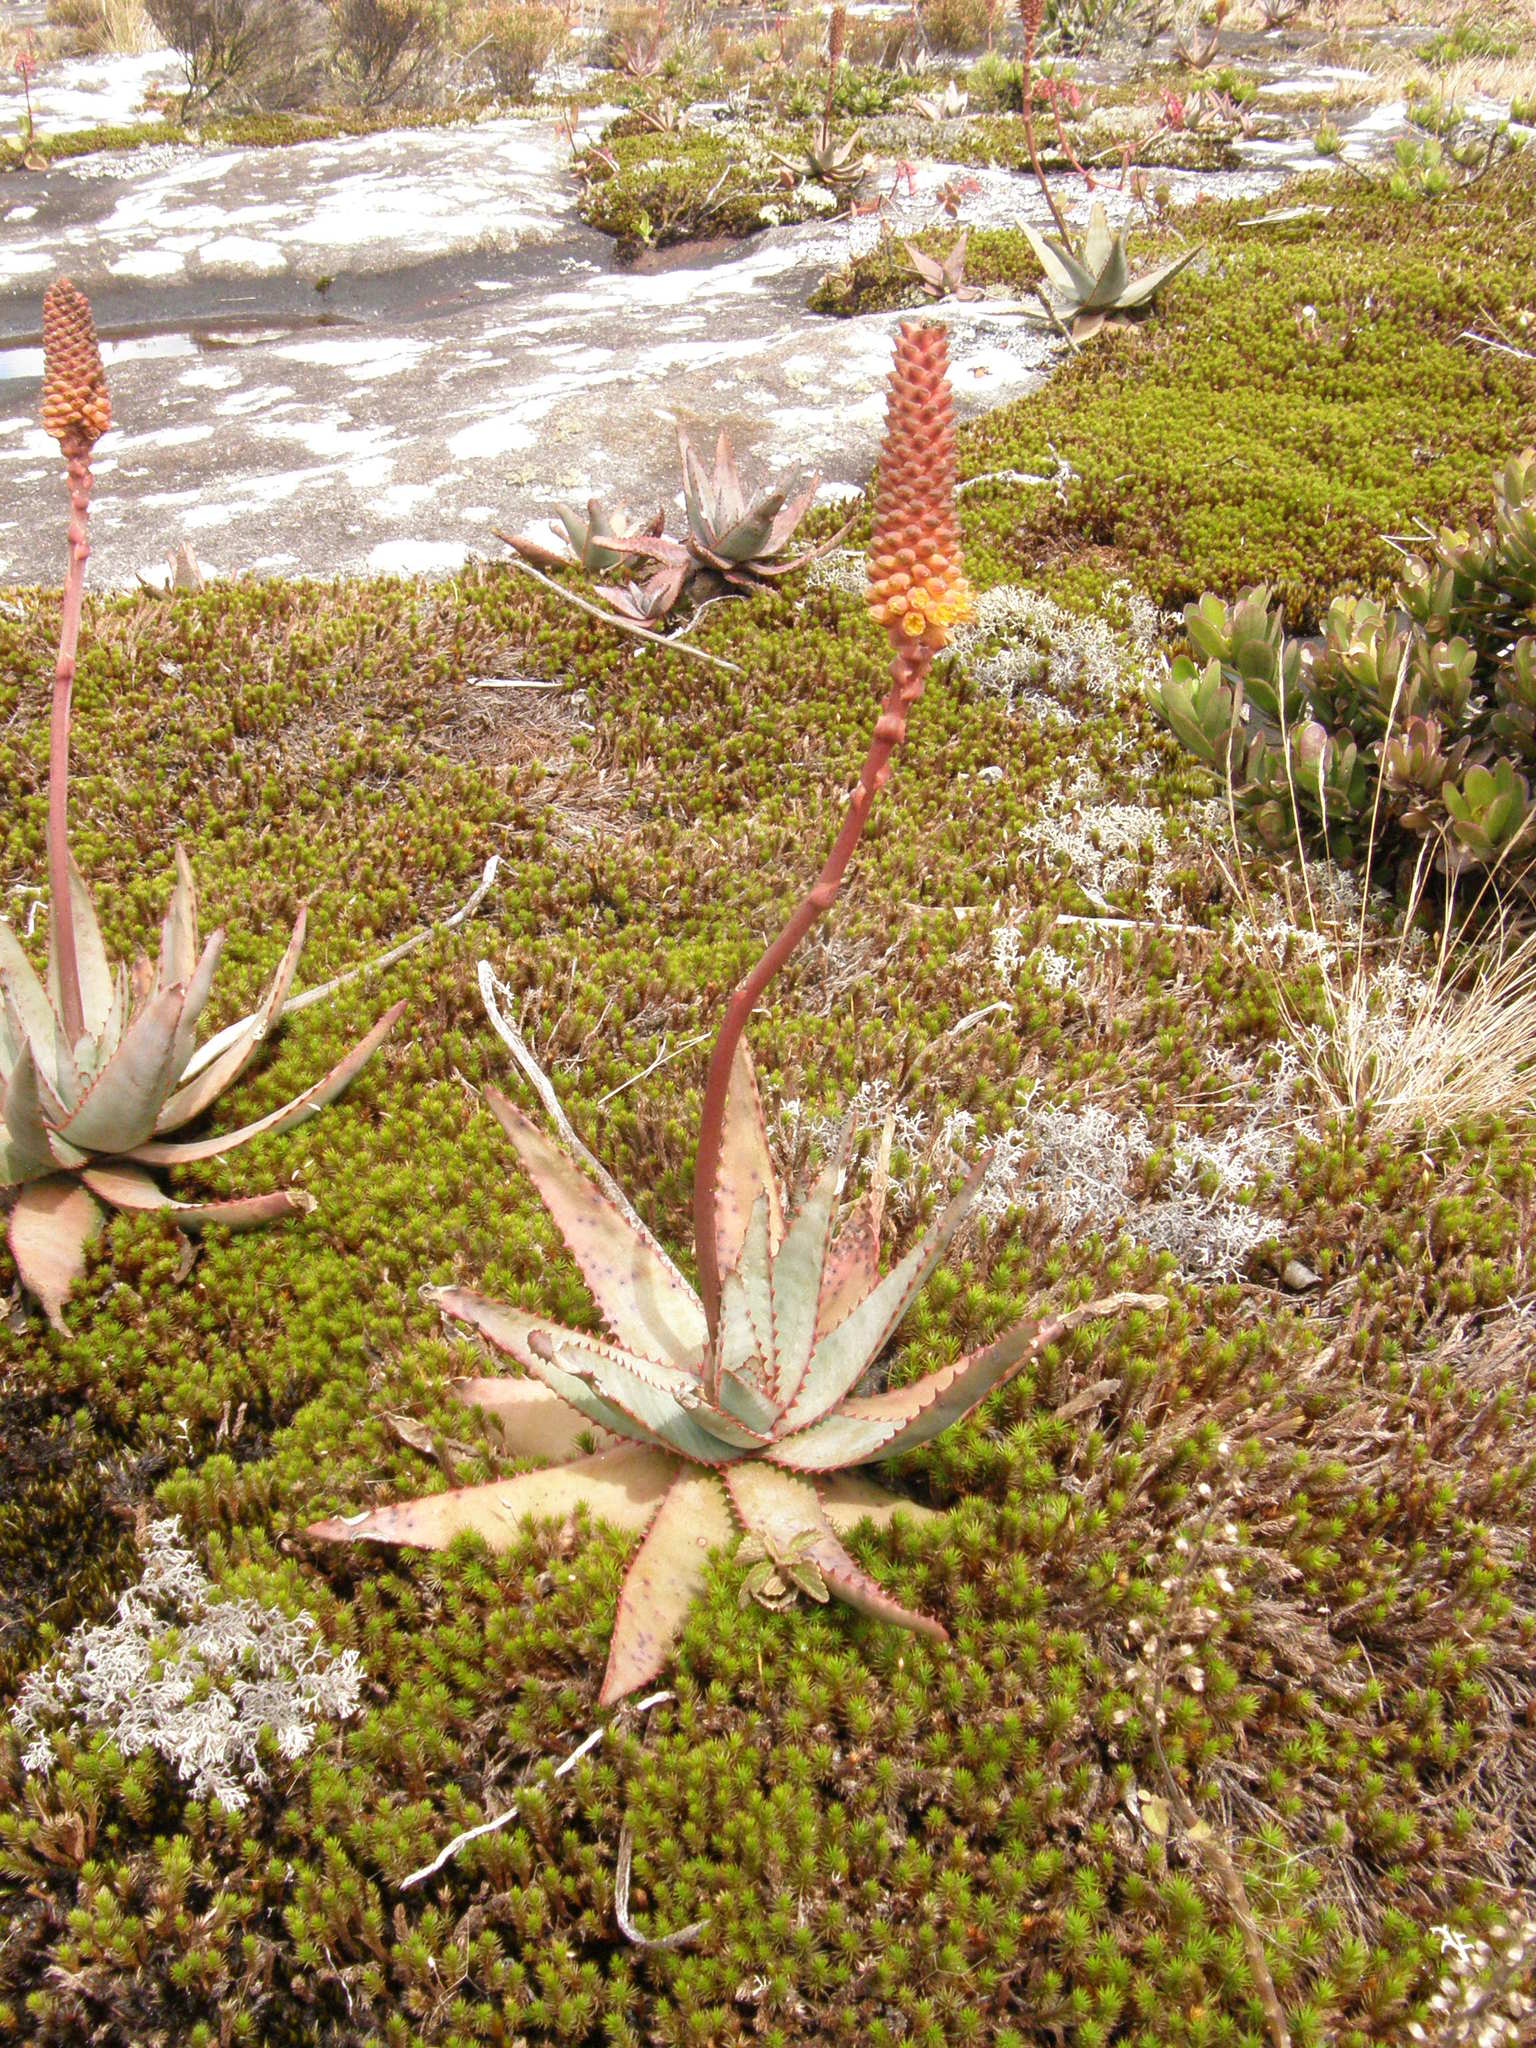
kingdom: Plantae
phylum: Tracheophyta
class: Liliopsida
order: Asparagales
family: Asphodelaceae
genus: Aloe
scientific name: Aloe conifera
